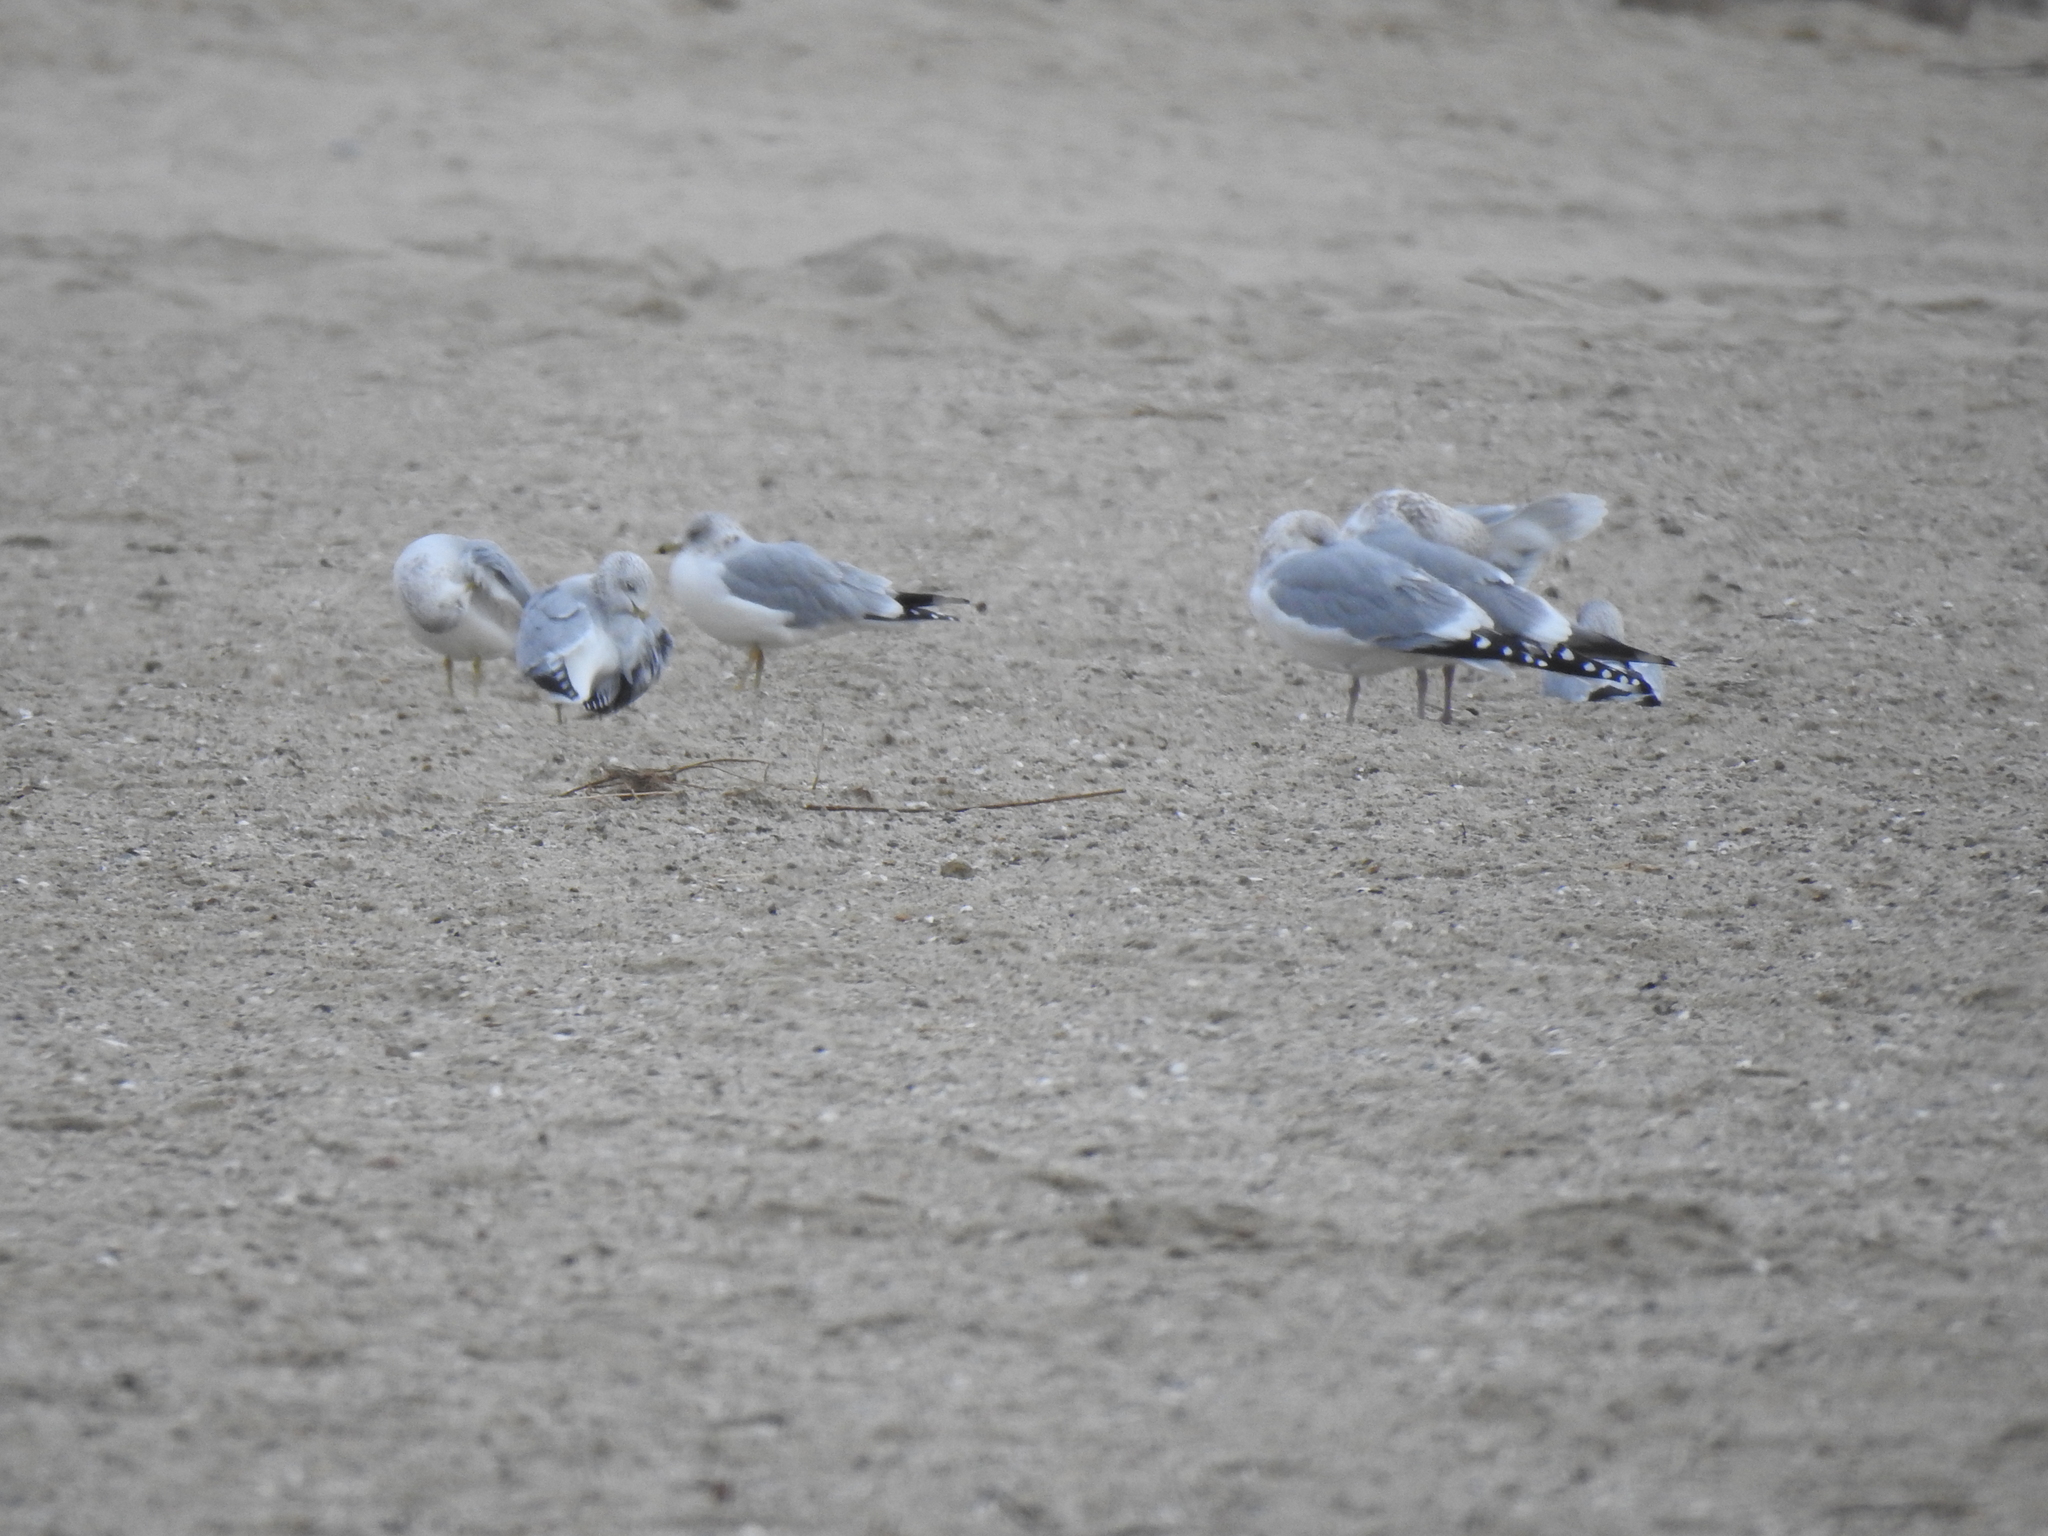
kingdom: Animalia
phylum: Chordata
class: Aves
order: Charadriiformes
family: Laridae
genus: Larus
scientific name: Larus delawarensis
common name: Ring-billed gull
